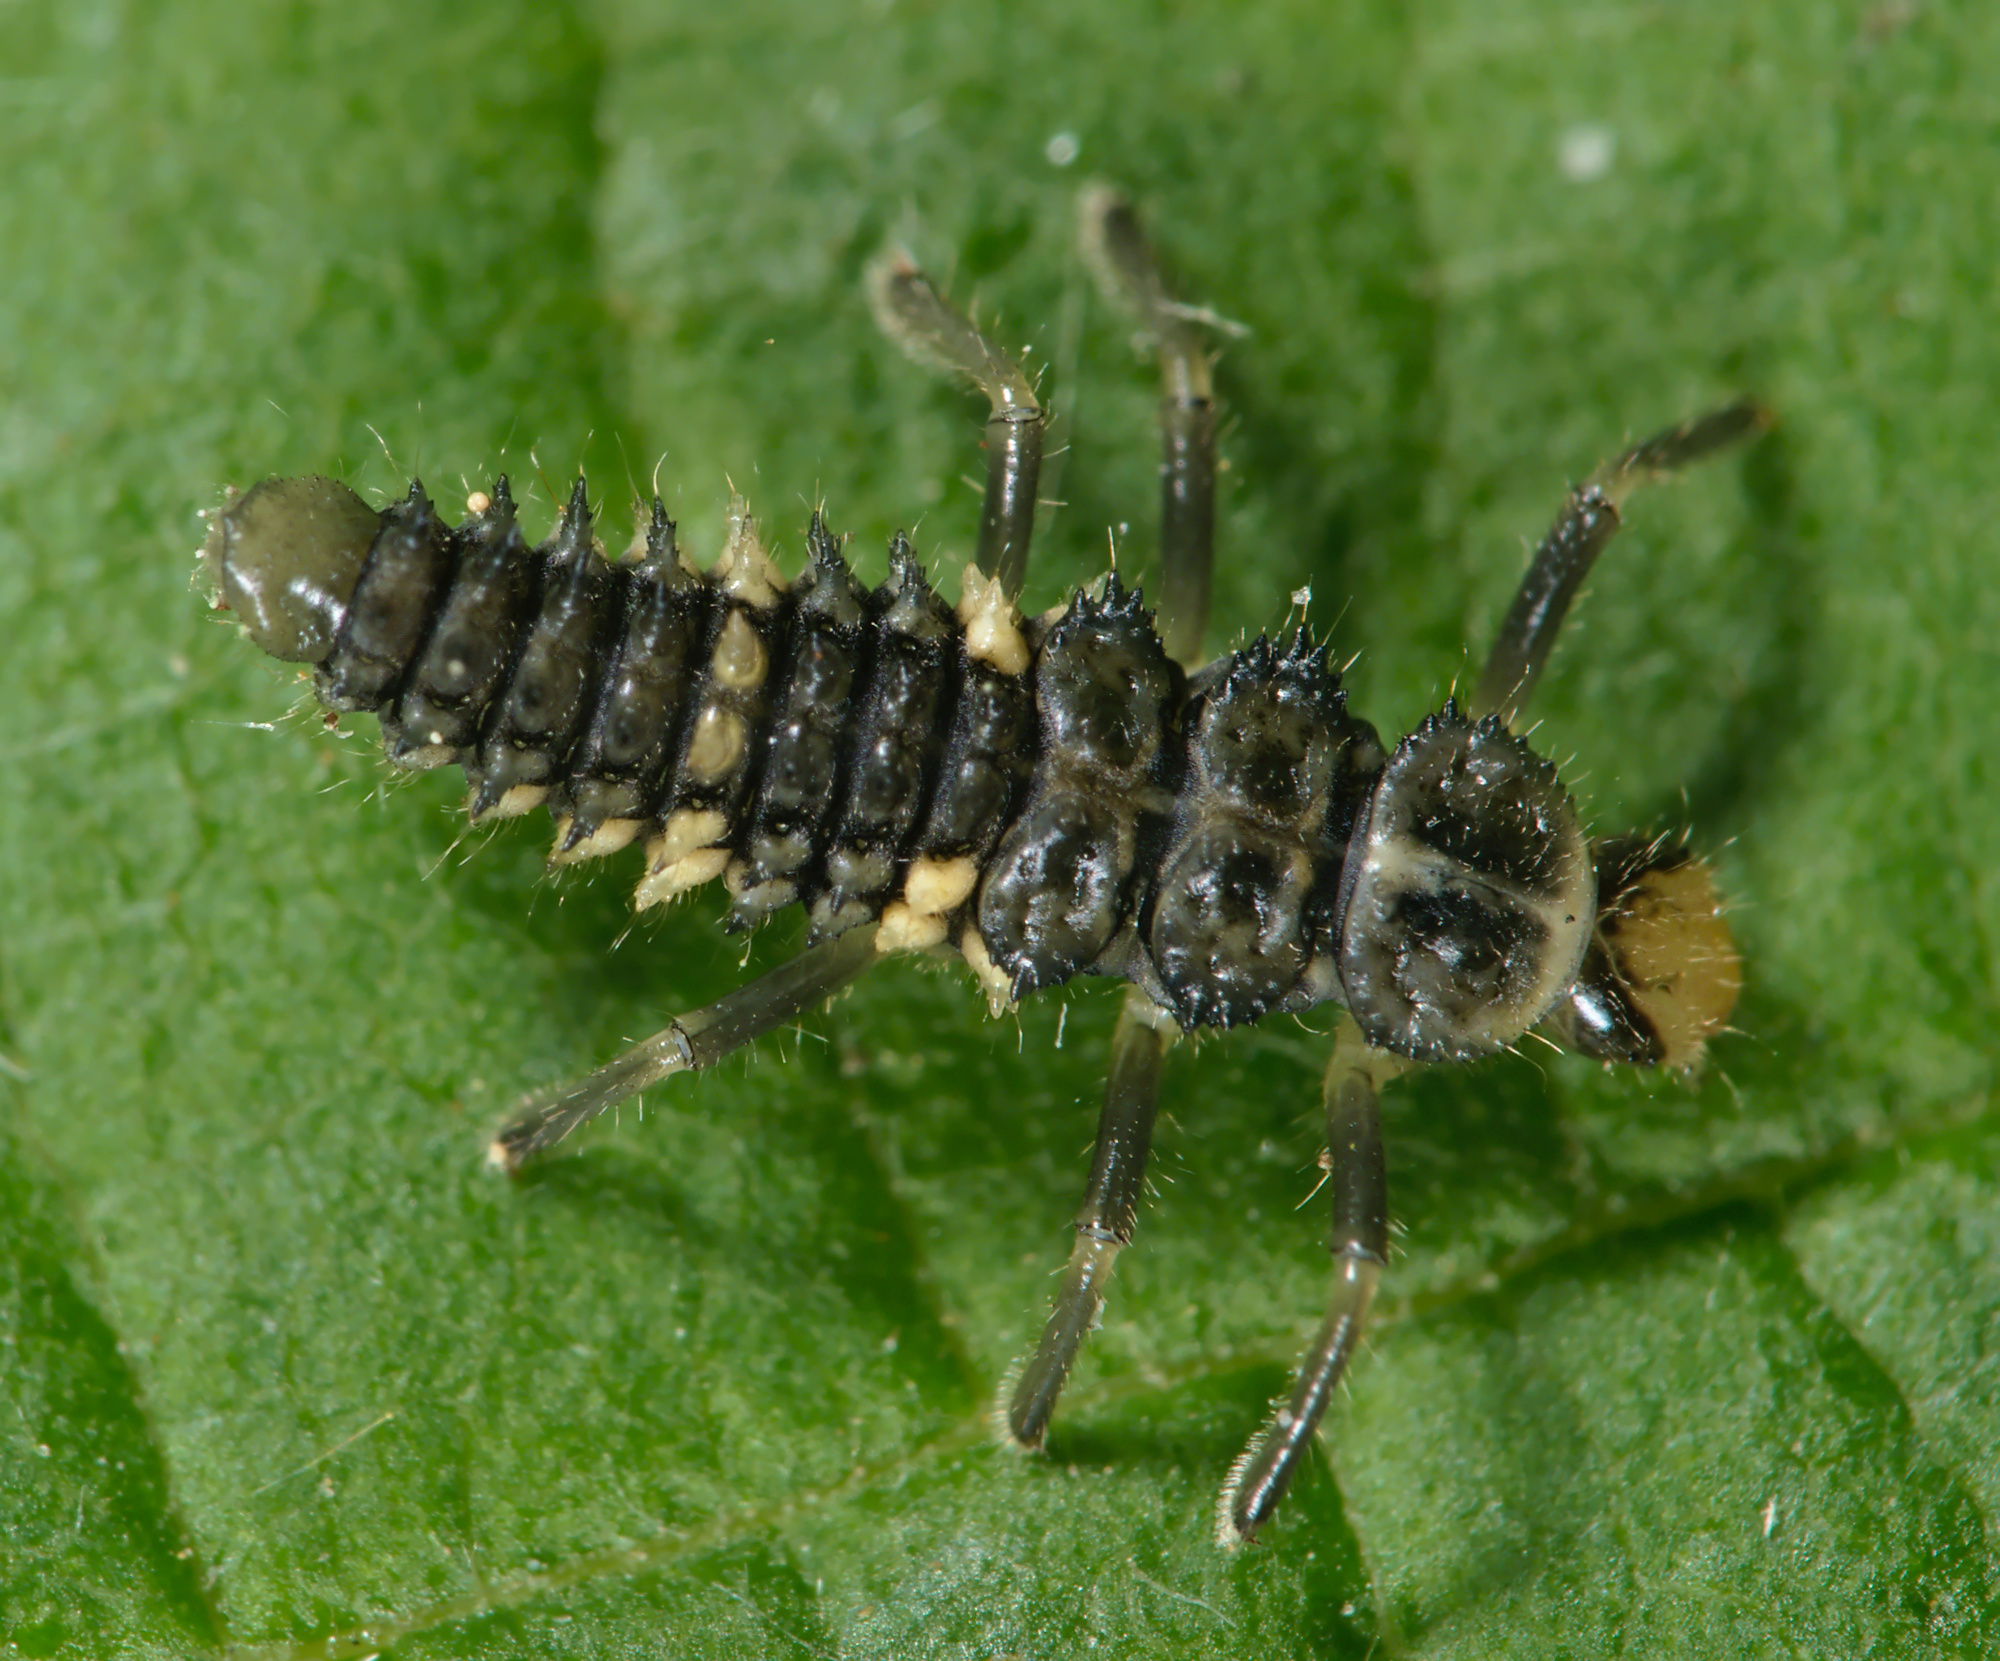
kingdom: Animalia
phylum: Arthropoda
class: Insecta
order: Coleoptera
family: Coccinellidae
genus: Calvia
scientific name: Calvia quatuordecimguttata
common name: Cream-spot ladybird
